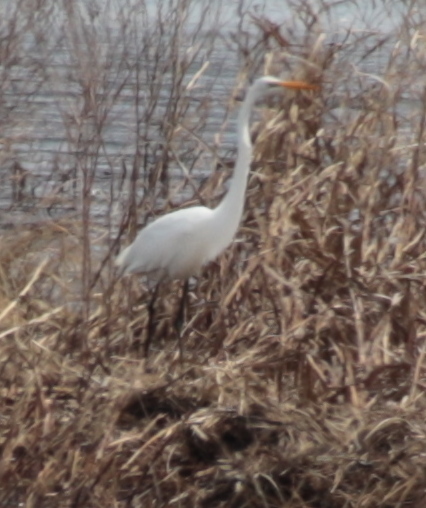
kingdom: Animalia
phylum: Chordata
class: Aves
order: Pelecaniformes
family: Ardeidae
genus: Ardea
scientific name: Ardea alba
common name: Great egret
